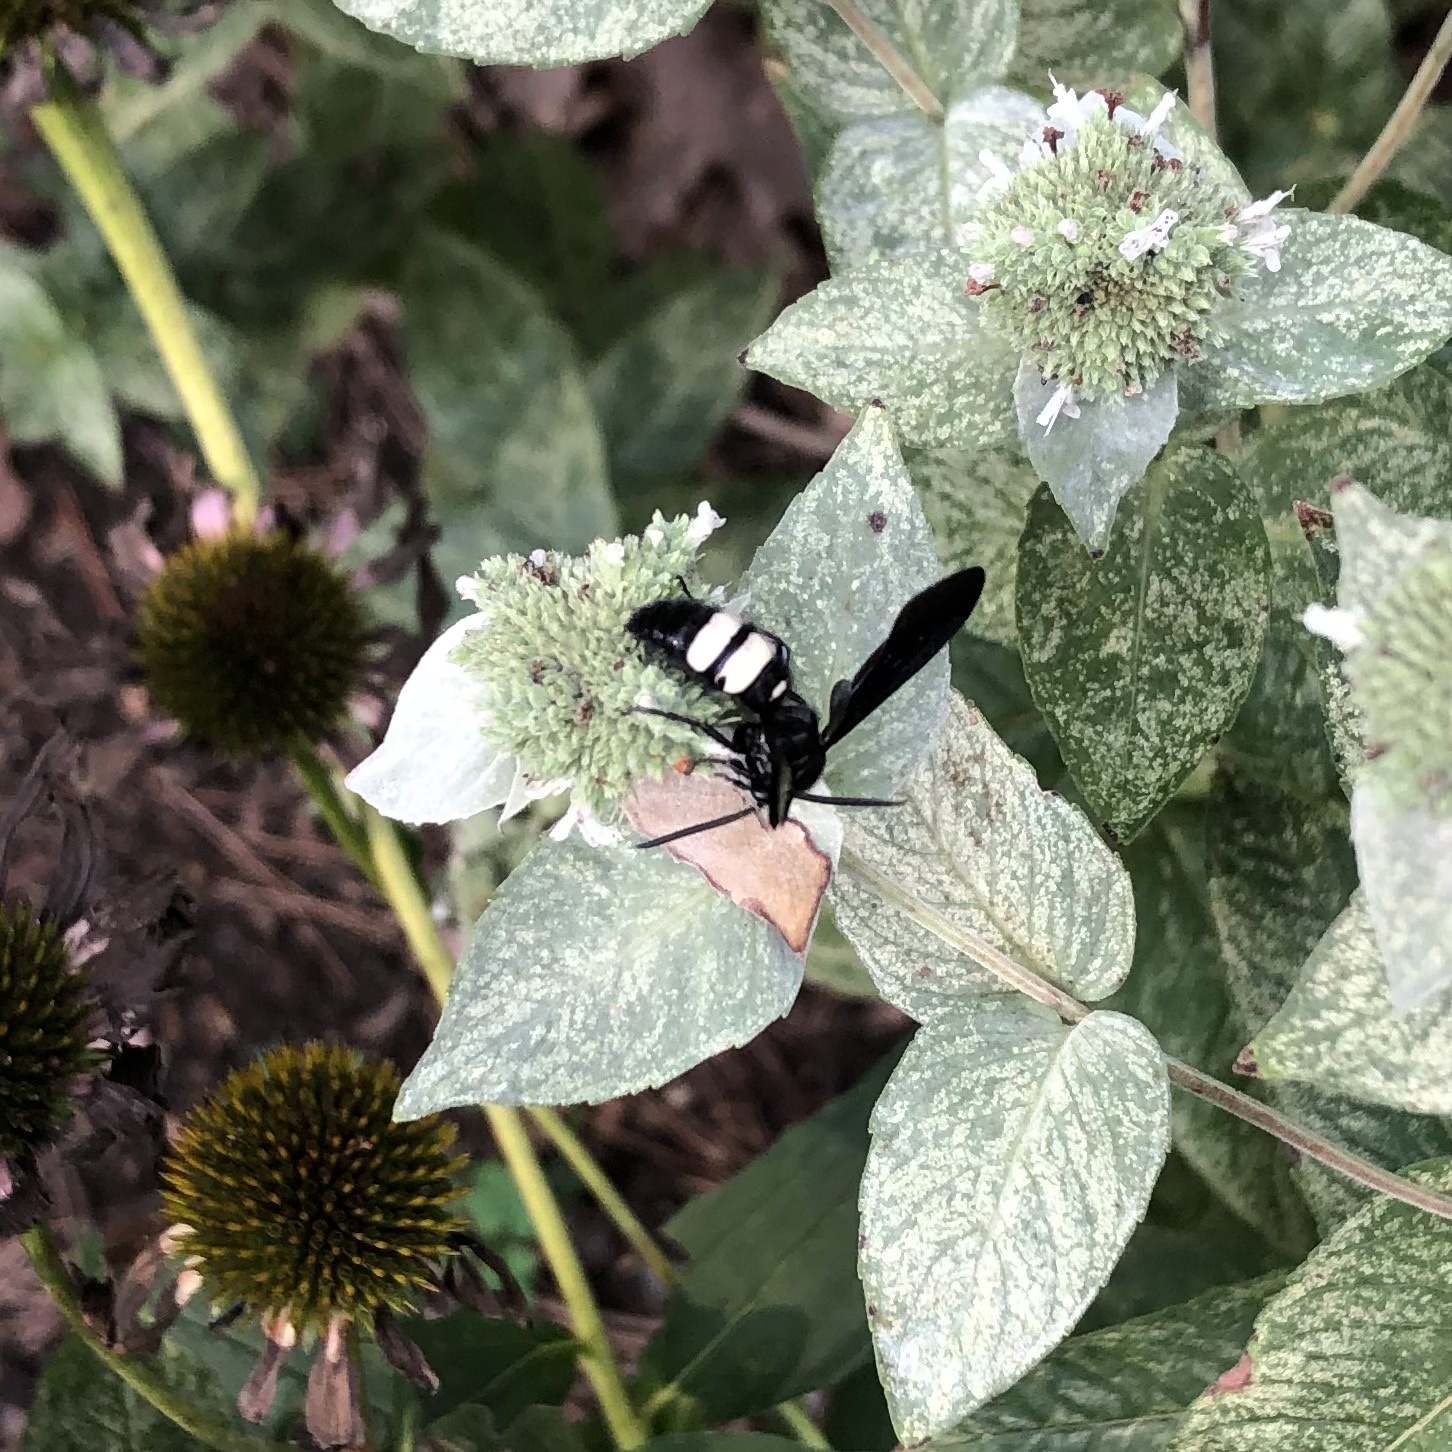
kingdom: Animalia
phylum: Arthropoda
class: Insecta
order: Hymenoptera
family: Scoliidae
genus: Scolia
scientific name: Scolia bicincta
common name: Double-banded scoliid wasp
